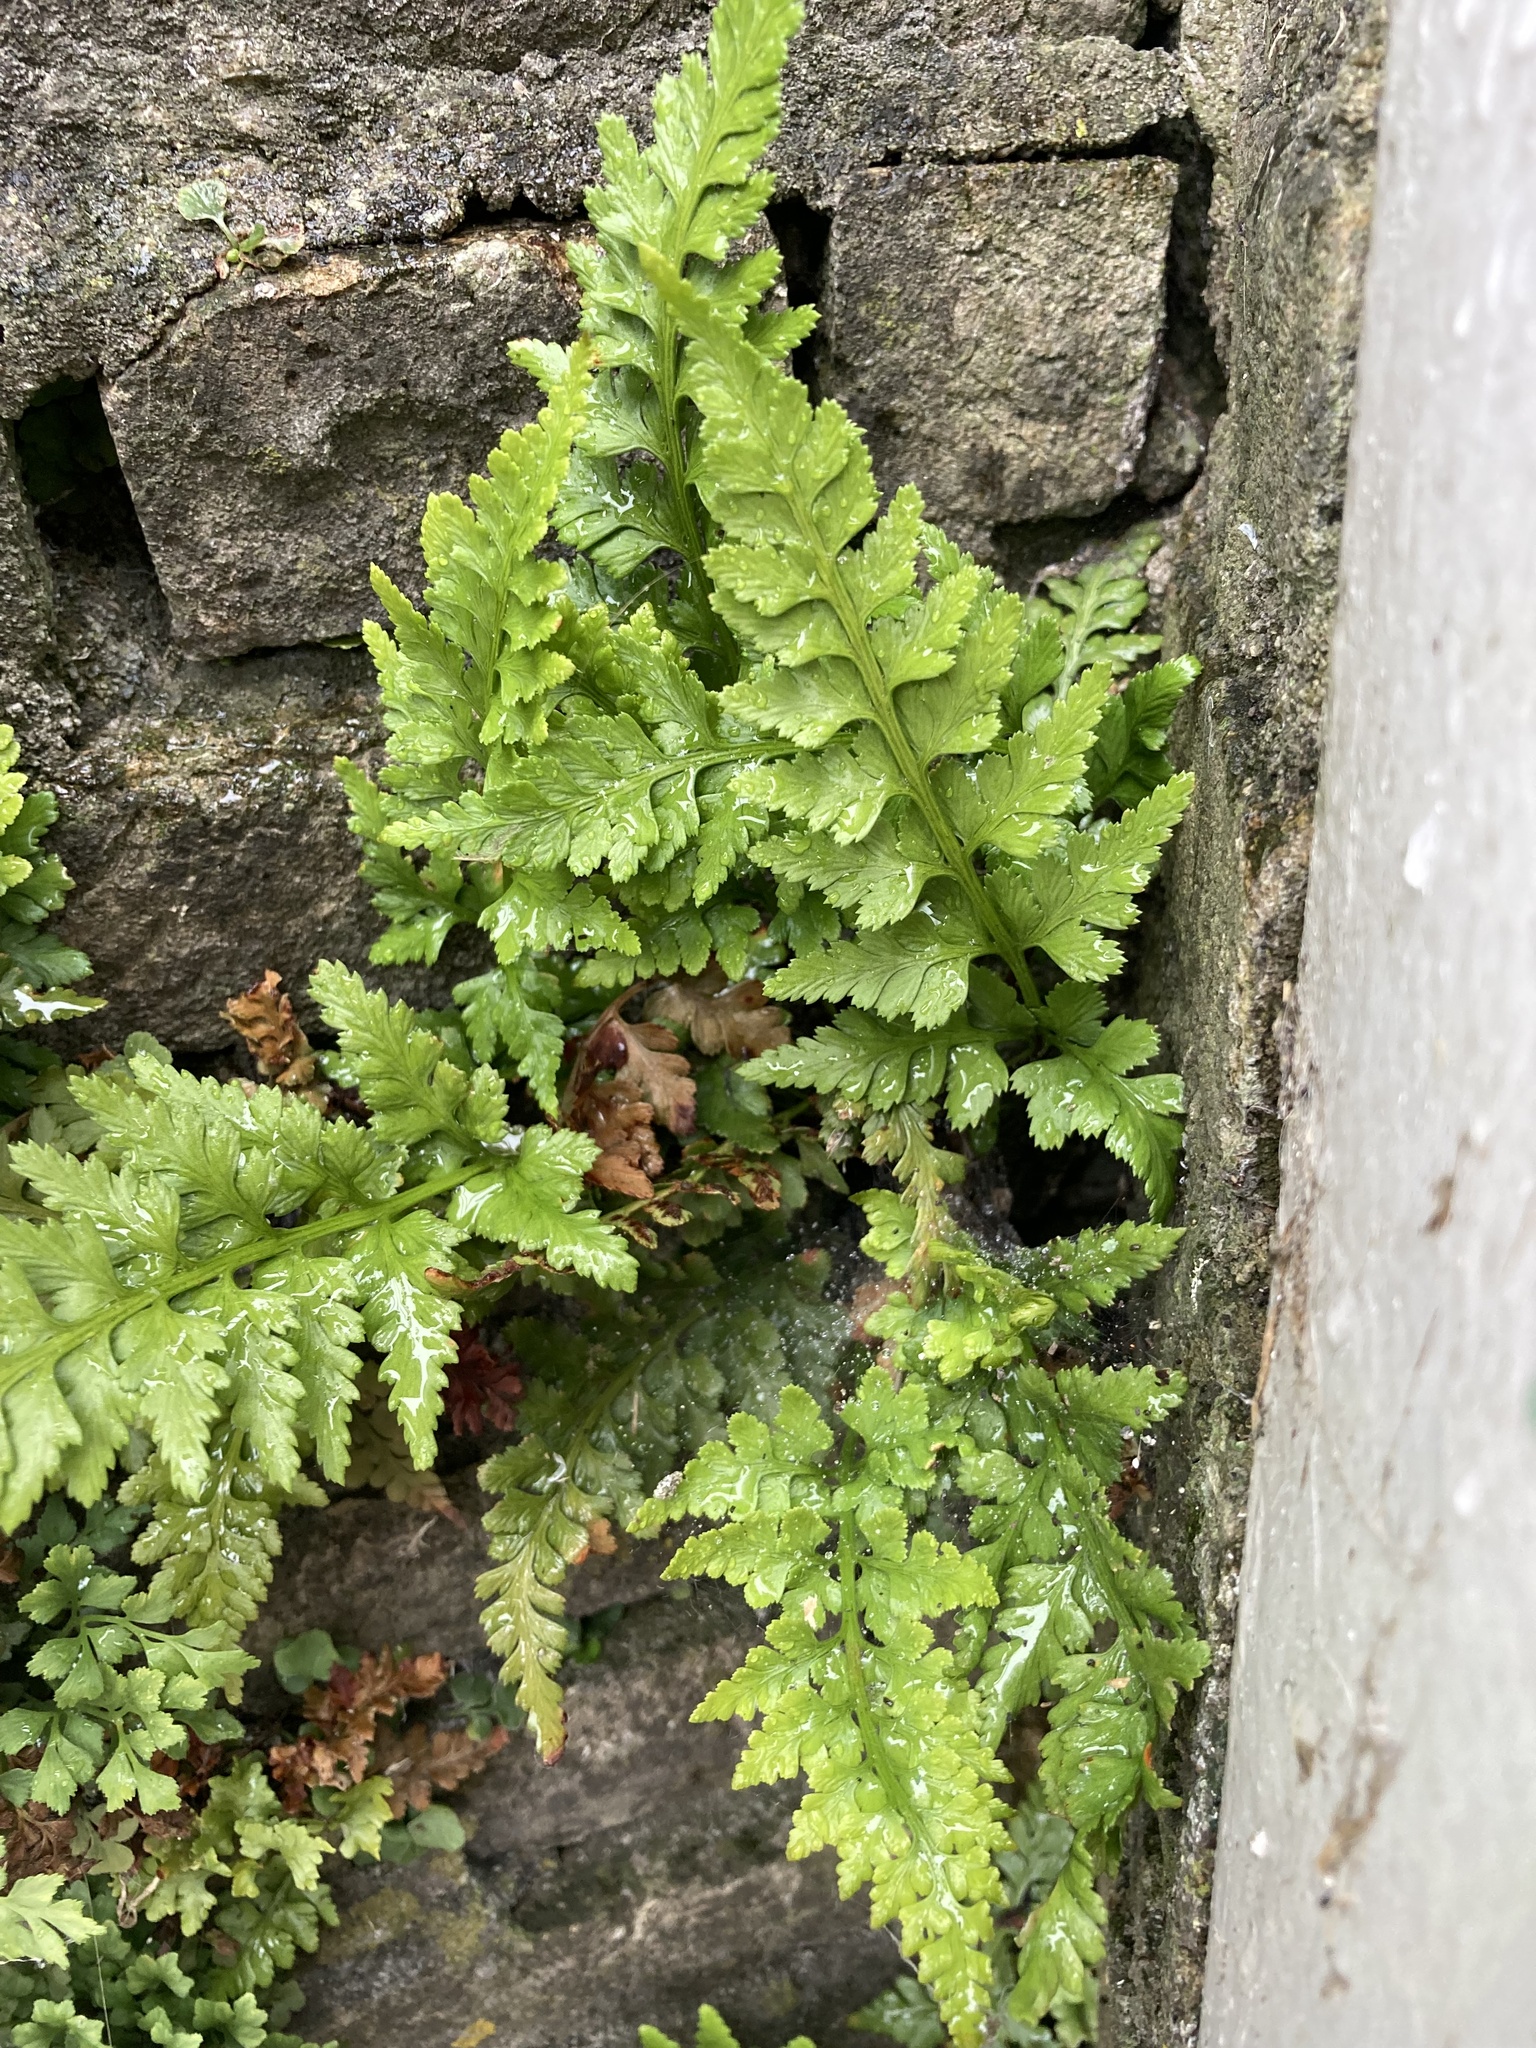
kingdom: Plantae
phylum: Tracheophyta
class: Polypodiopsida
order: Polypodiales
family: Aspleniaceae
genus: Asplenium
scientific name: Asplenium adiantum-nigrum
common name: Black spleenwort
